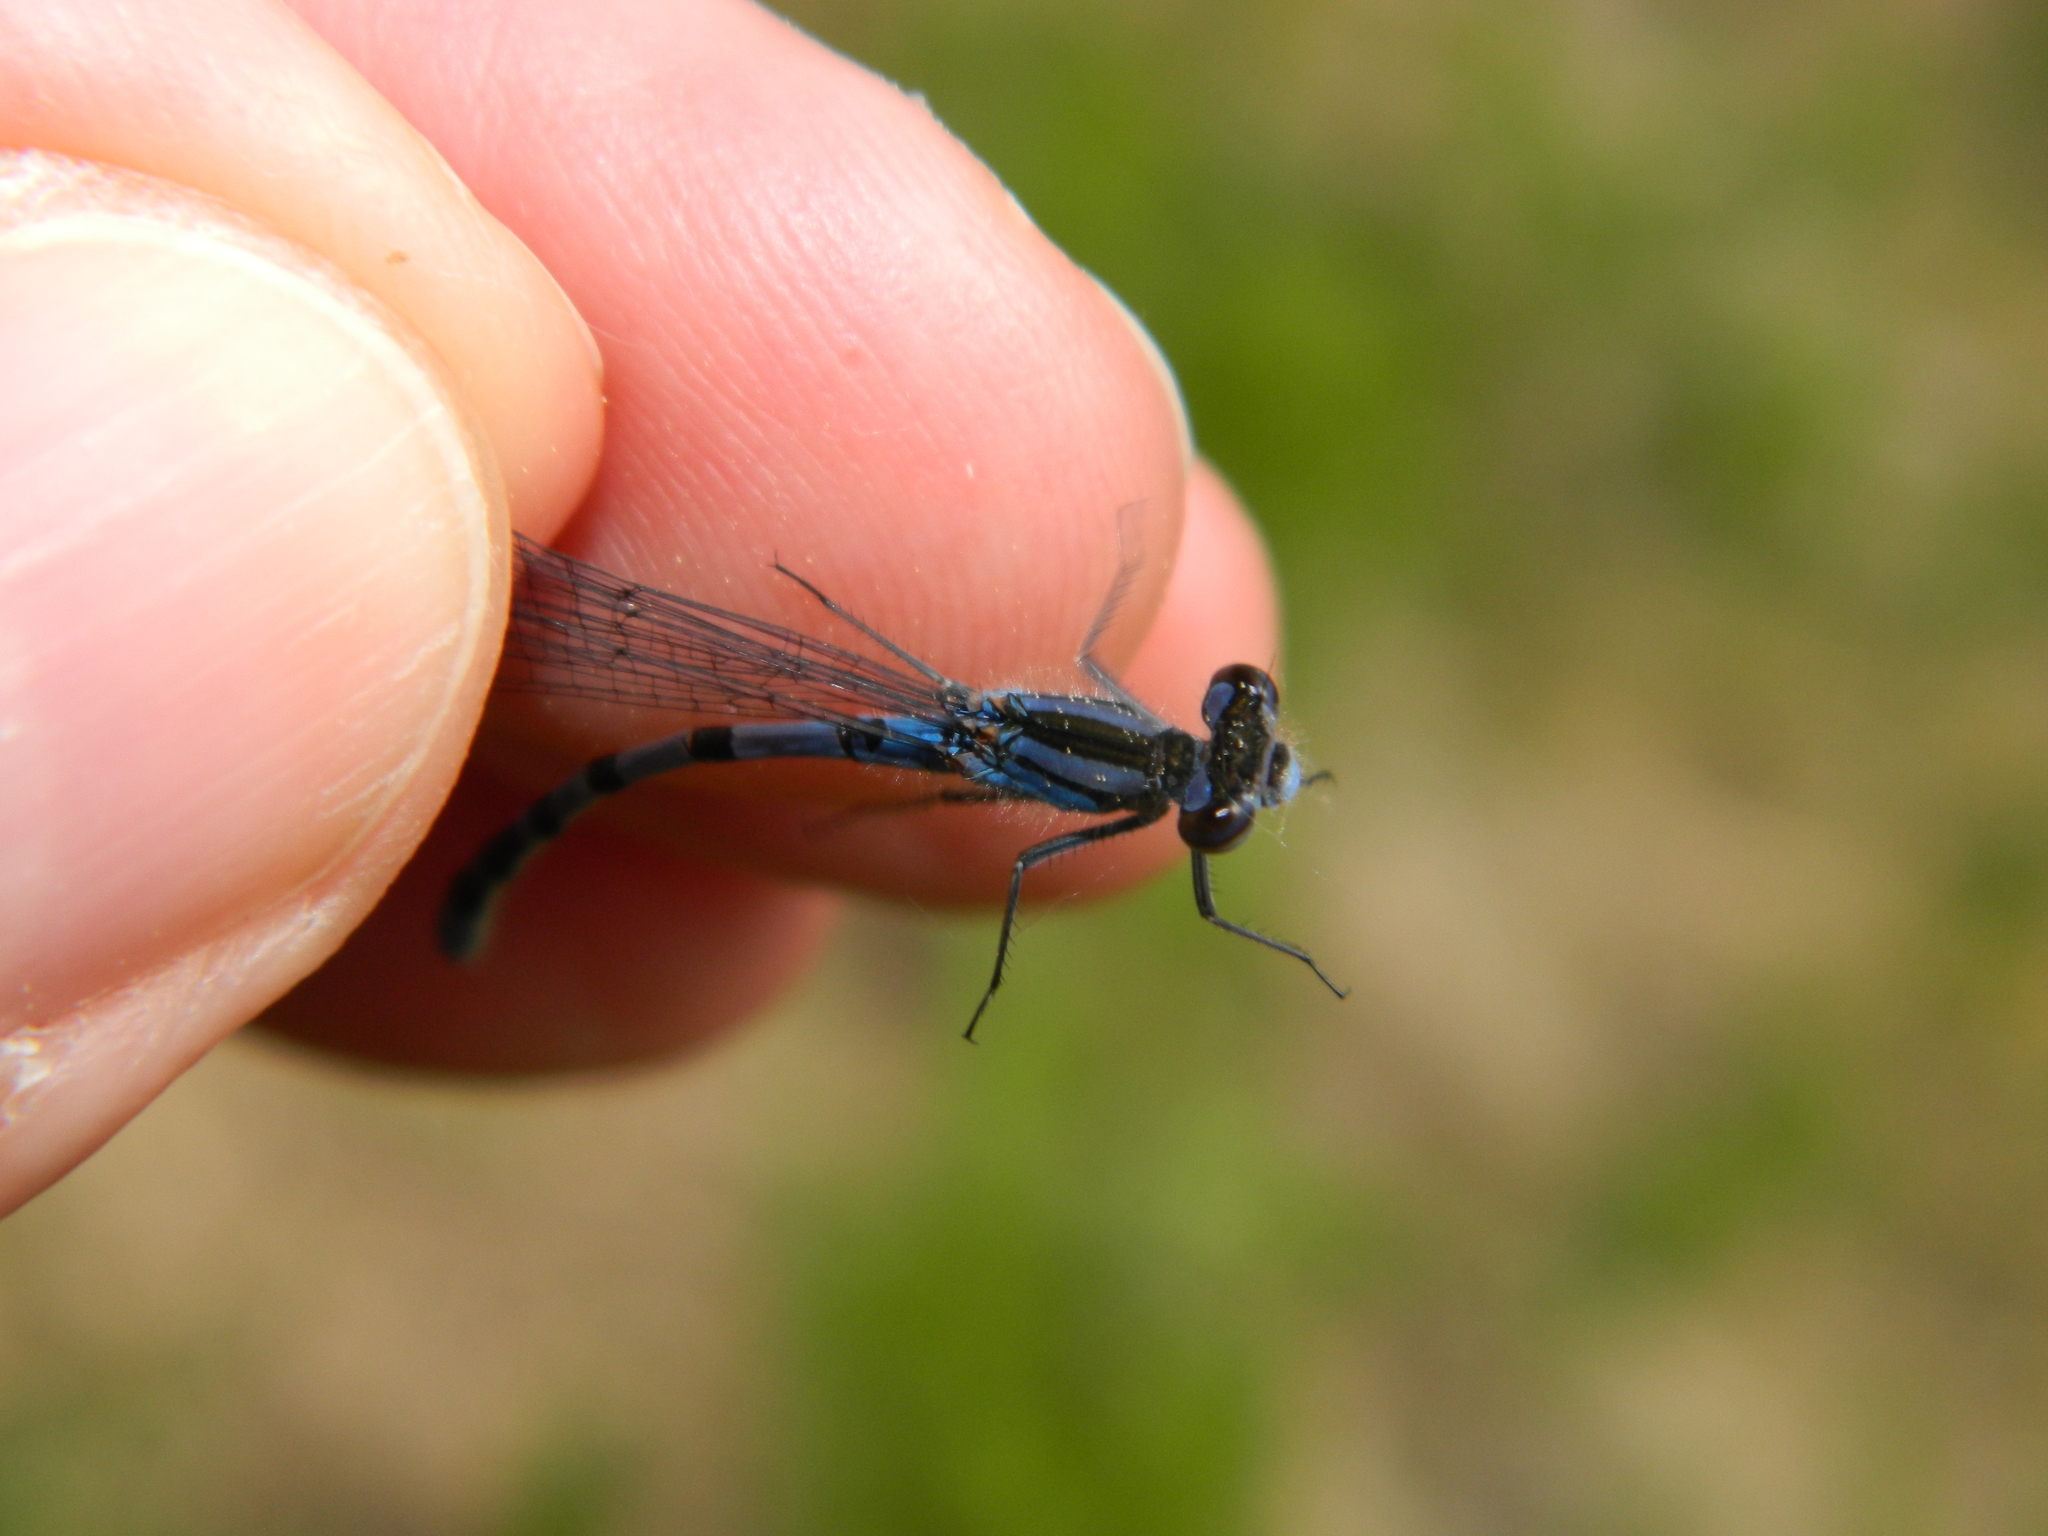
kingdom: Animalia
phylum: Arthropoda
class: Insecta
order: Odonata
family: Coenagrionidae
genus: Enallagma
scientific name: Enallagma annexum
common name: Northern bluet
